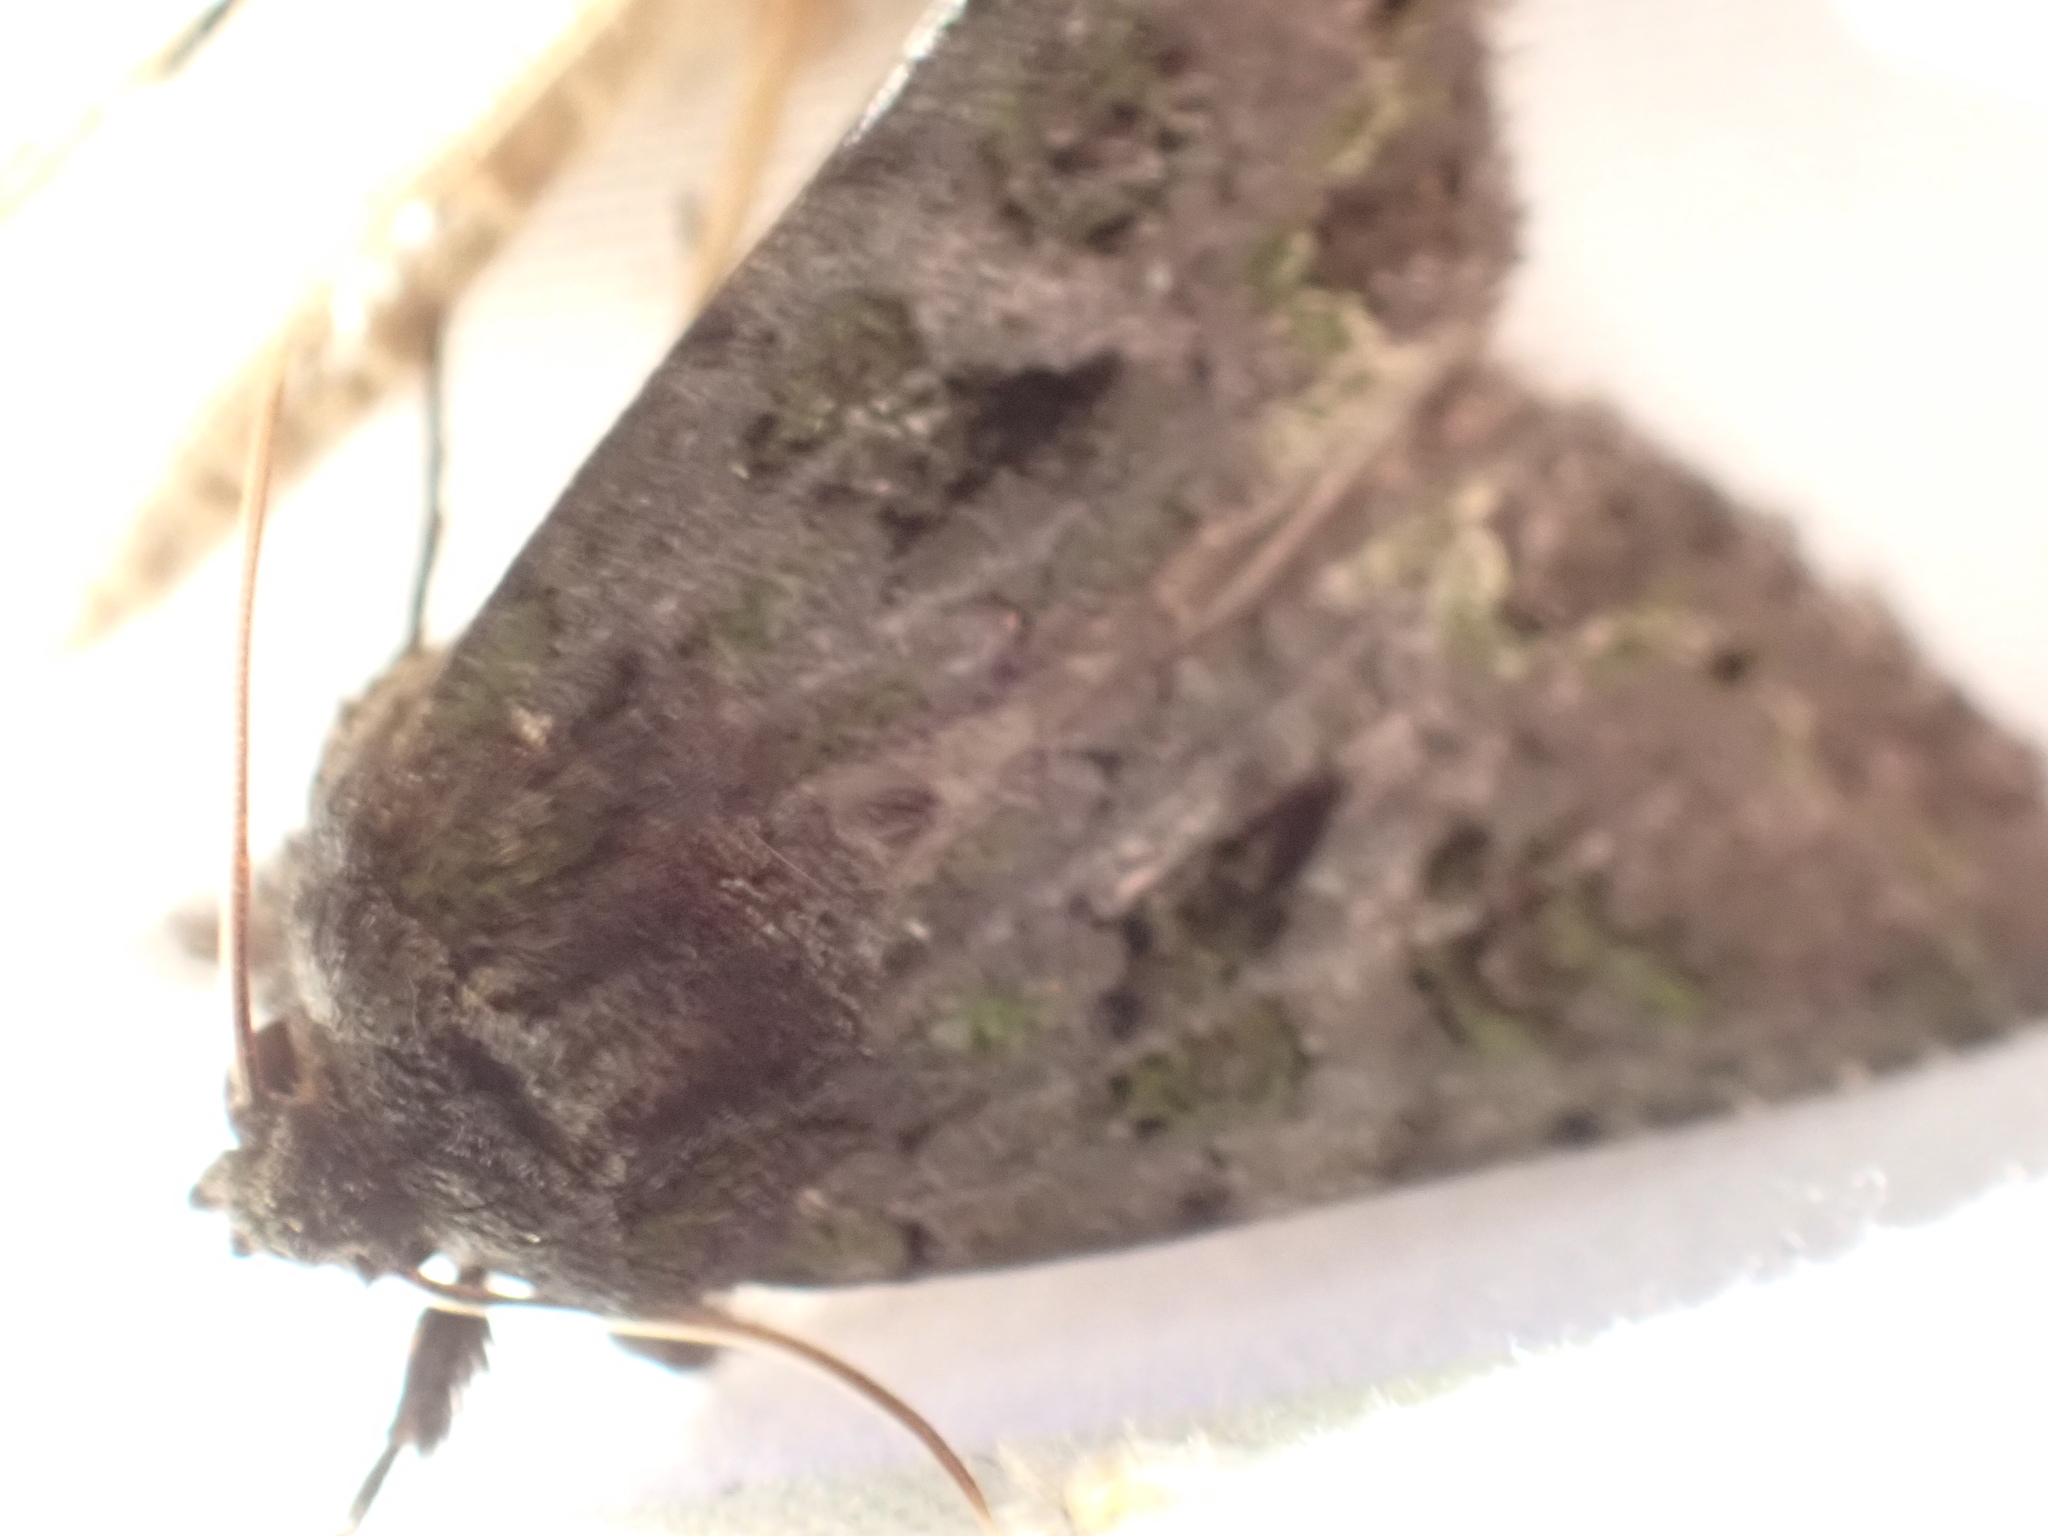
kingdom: Animalia
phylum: Arthropoda
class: Insecta
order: Lepidoptera
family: Noctuidae
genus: Lacinipolia
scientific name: Lacinipolia renigera
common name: Kidney-spotted minor
